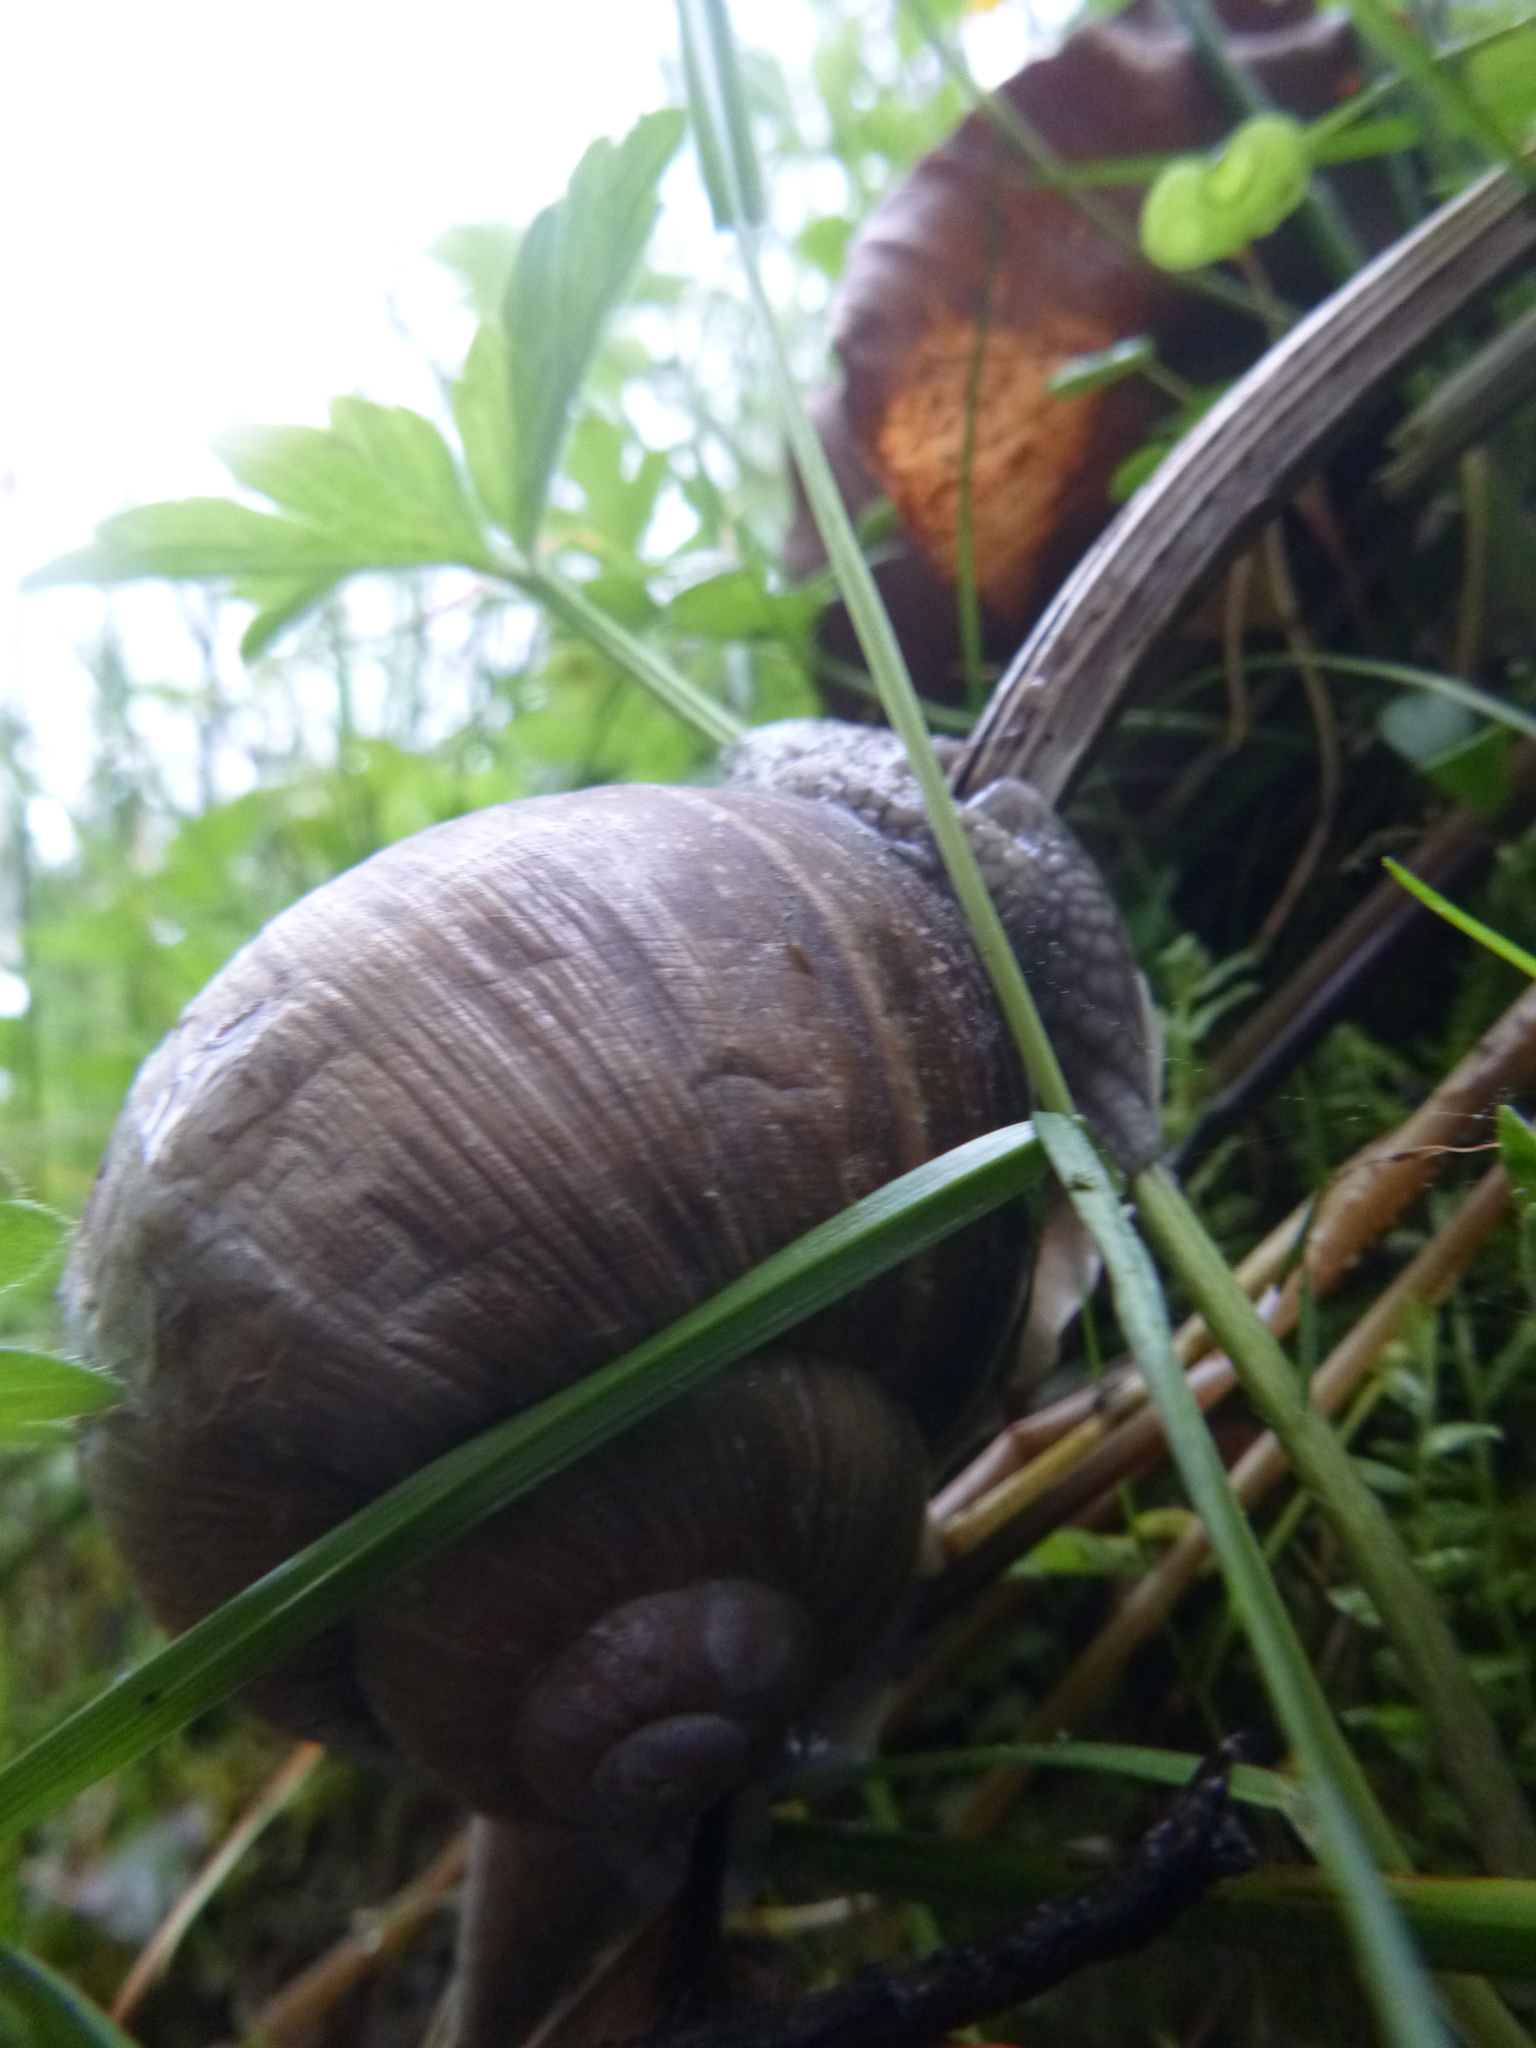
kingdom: Animalia
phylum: Mollusca
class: Gastropoda
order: Stylommatophora
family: Helicidae
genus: Helix
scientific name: Helix pomatia
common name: Roman snail
